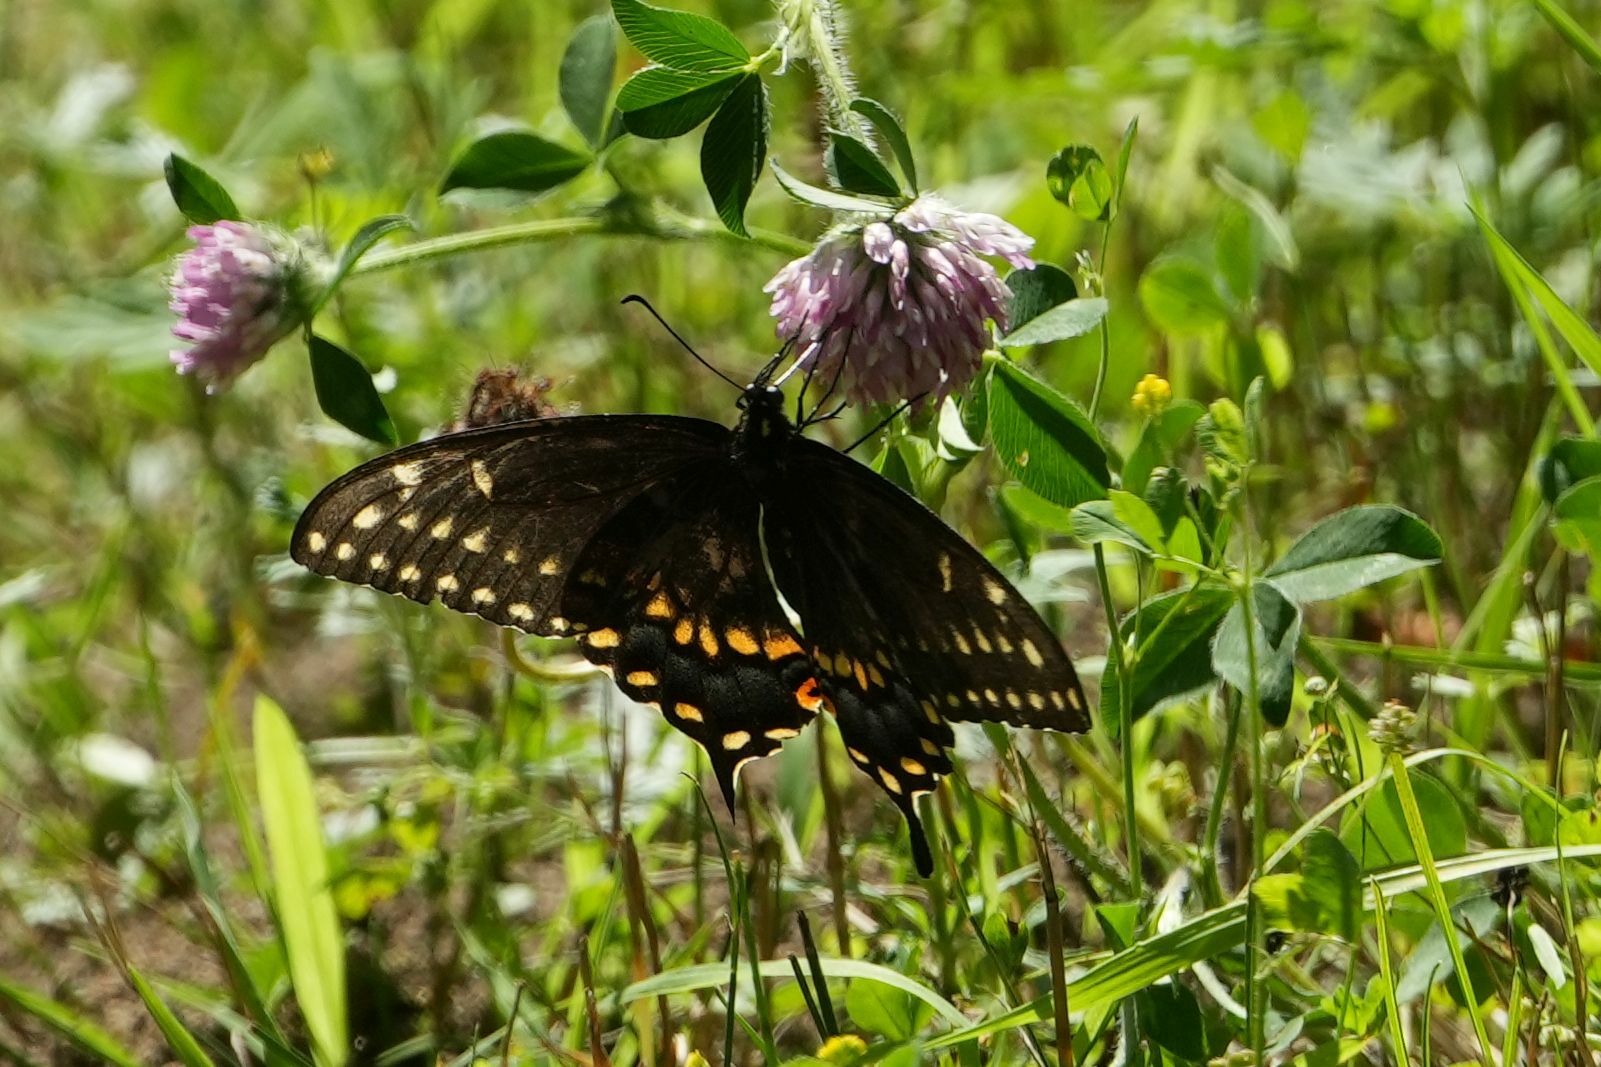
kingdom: Animalia
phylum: Arthropoda
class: Insecta
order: Lepidoptera
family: Papilionidae
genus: Papilio
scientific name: Papilio polyxenes
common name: Black swallowtail
